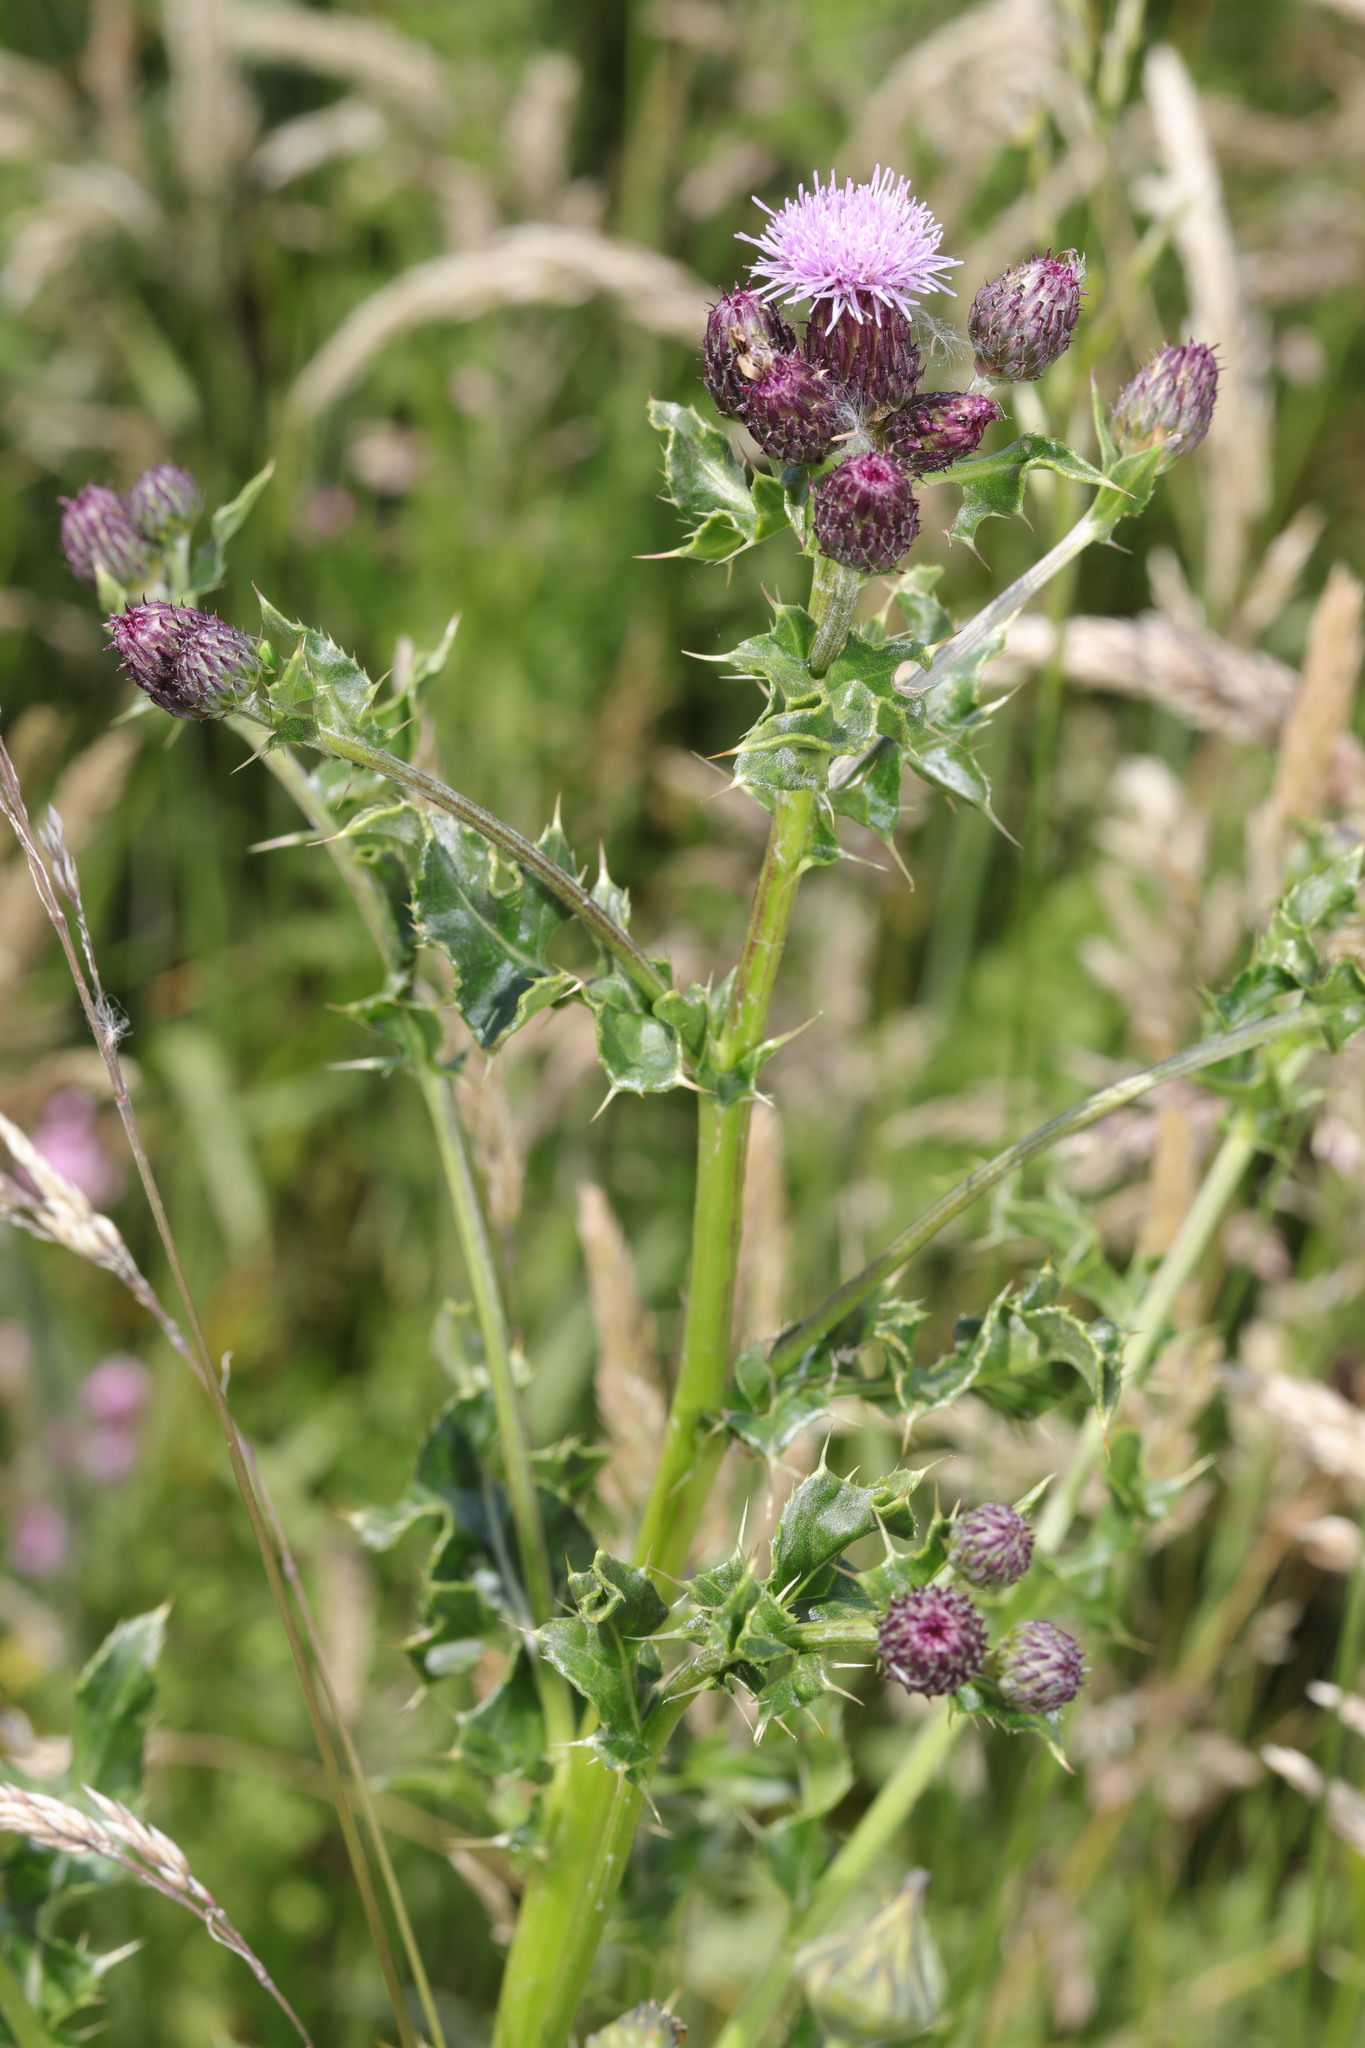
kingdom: Plantae
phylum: Tracheophyta
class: Magnoliopsida
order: Asterales
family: Asteraceae
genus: Cirsium
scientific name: Cirsium arvense
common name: Creeping thistle
